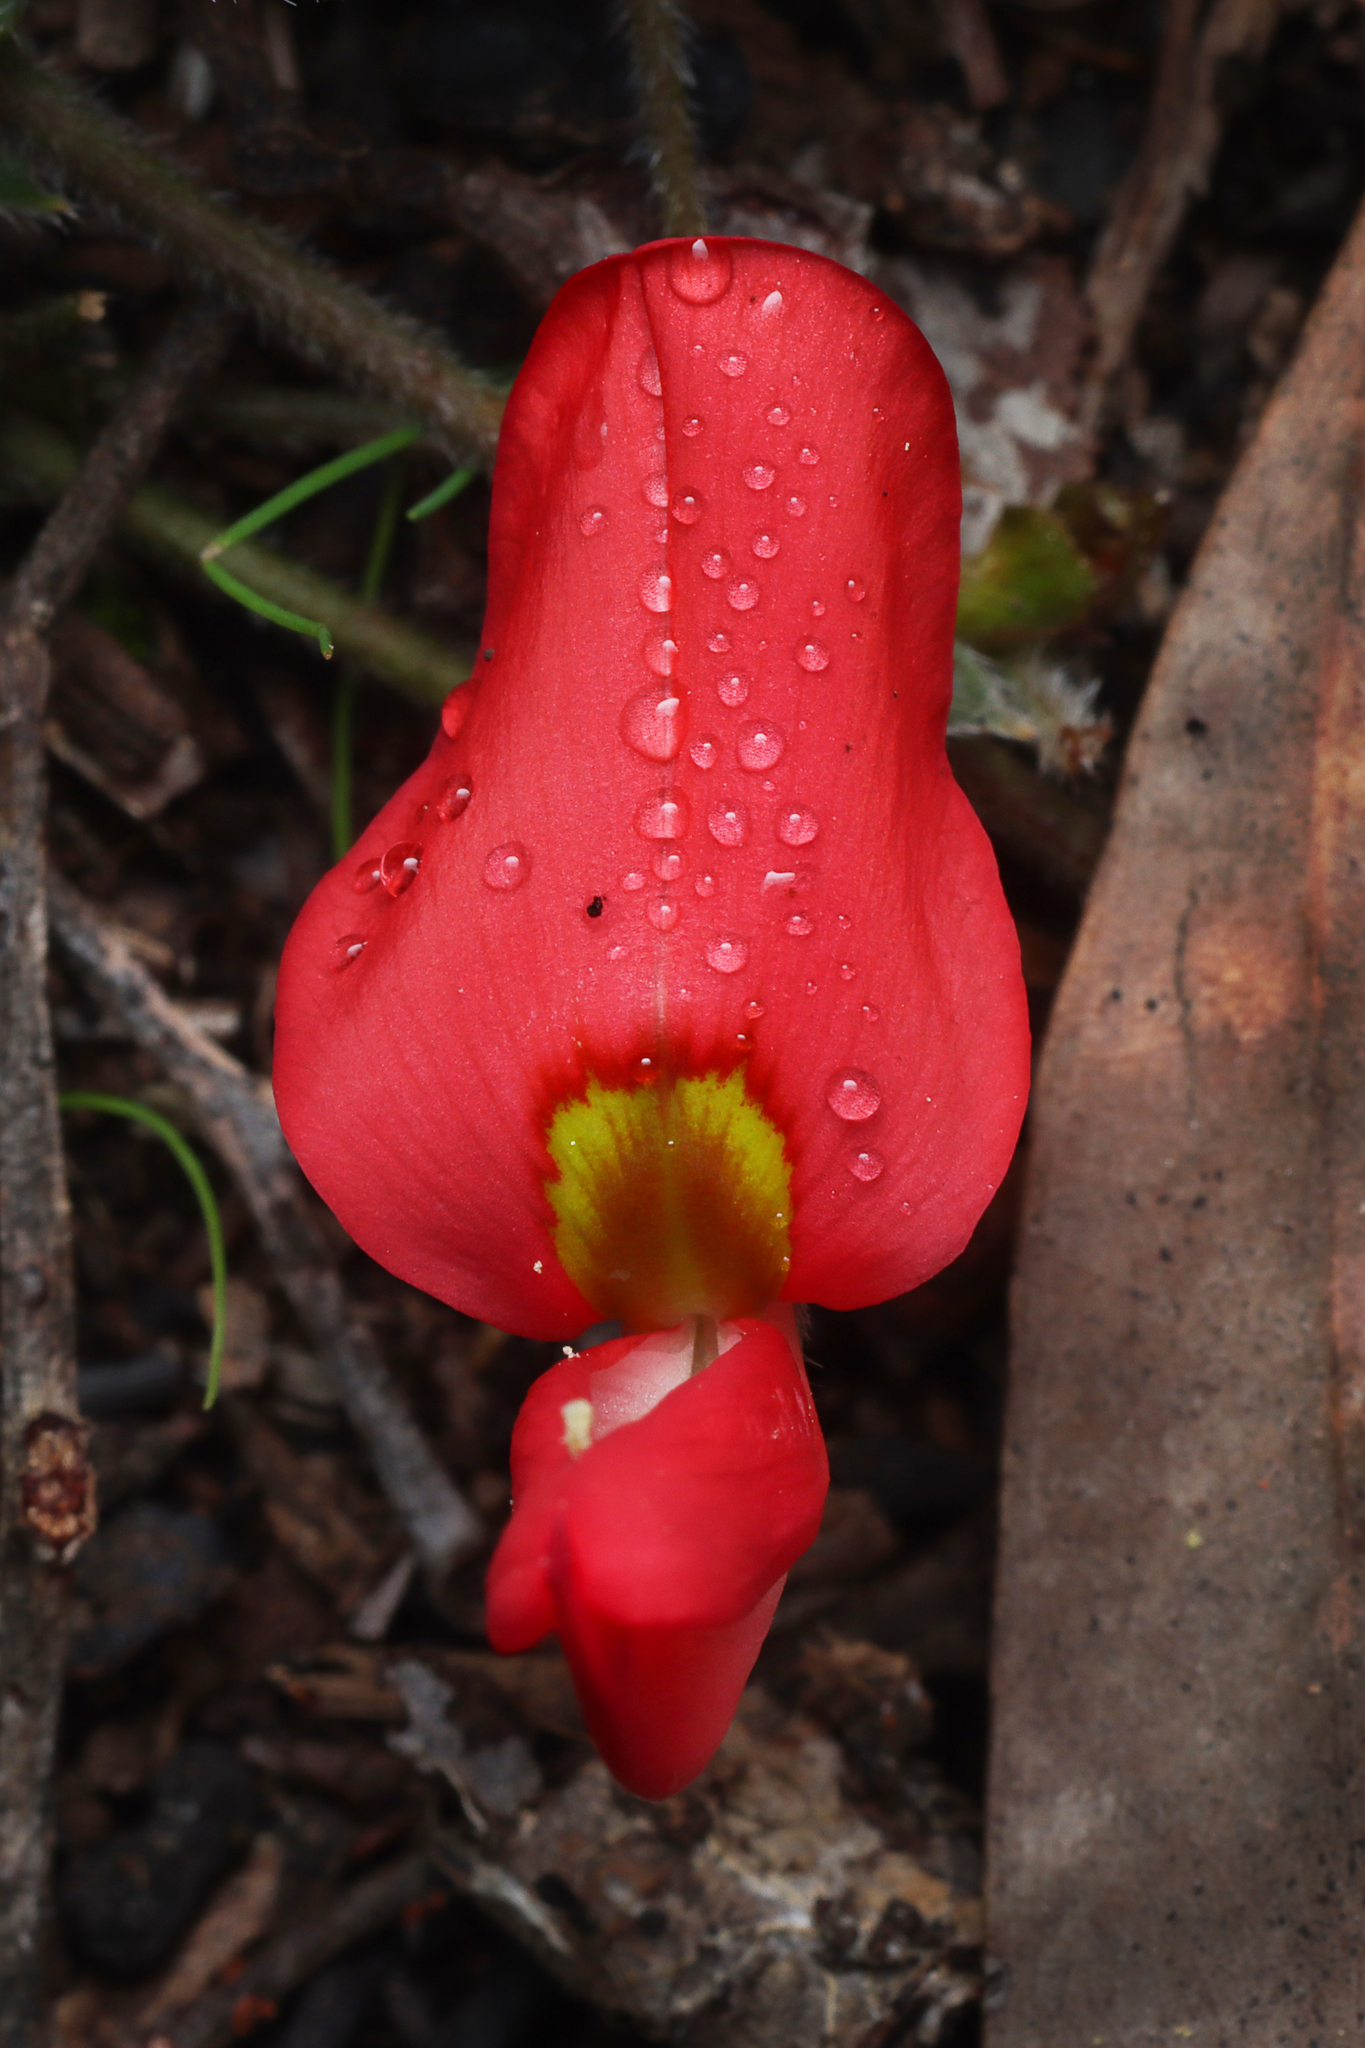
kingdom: Plantae
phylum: Tracheophyta
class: Magnoliopsida
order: Fabales
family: Fabaceae
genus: Kennedia
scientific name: Kennedia prostrata
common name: Running-postman
